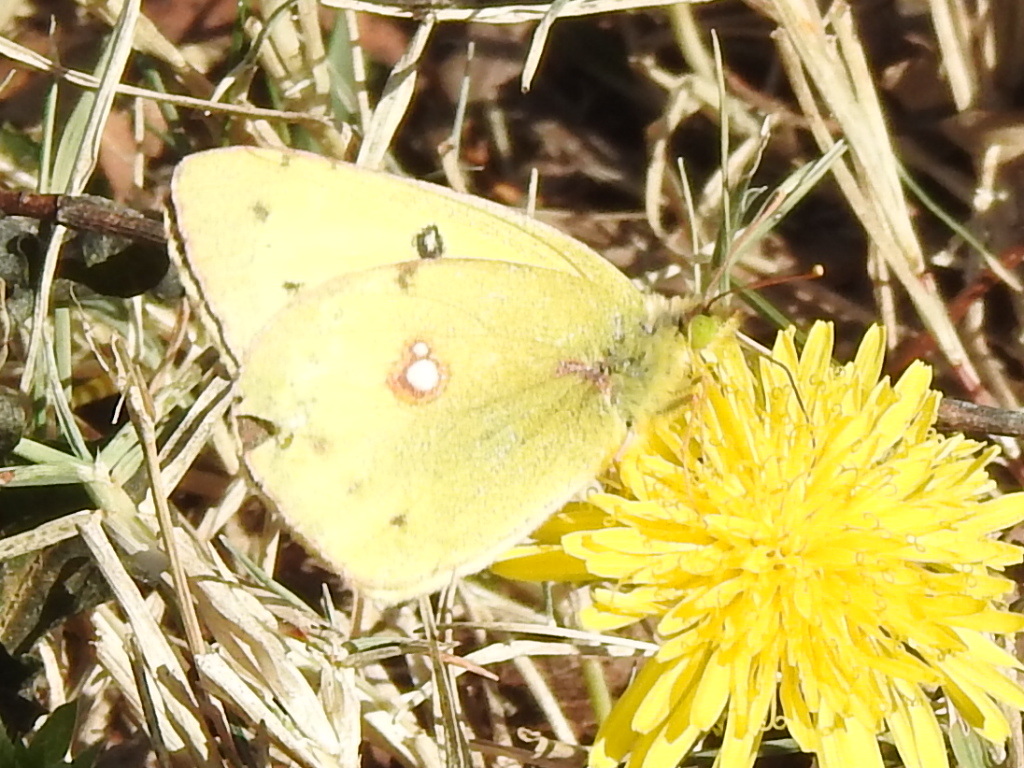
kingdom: Animalia
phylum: Arthropoda
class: Insecta
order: Lepidoptera
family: Pieridae
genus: Colias
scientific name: Colias eurytheme
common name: Alfalfa butterfly
